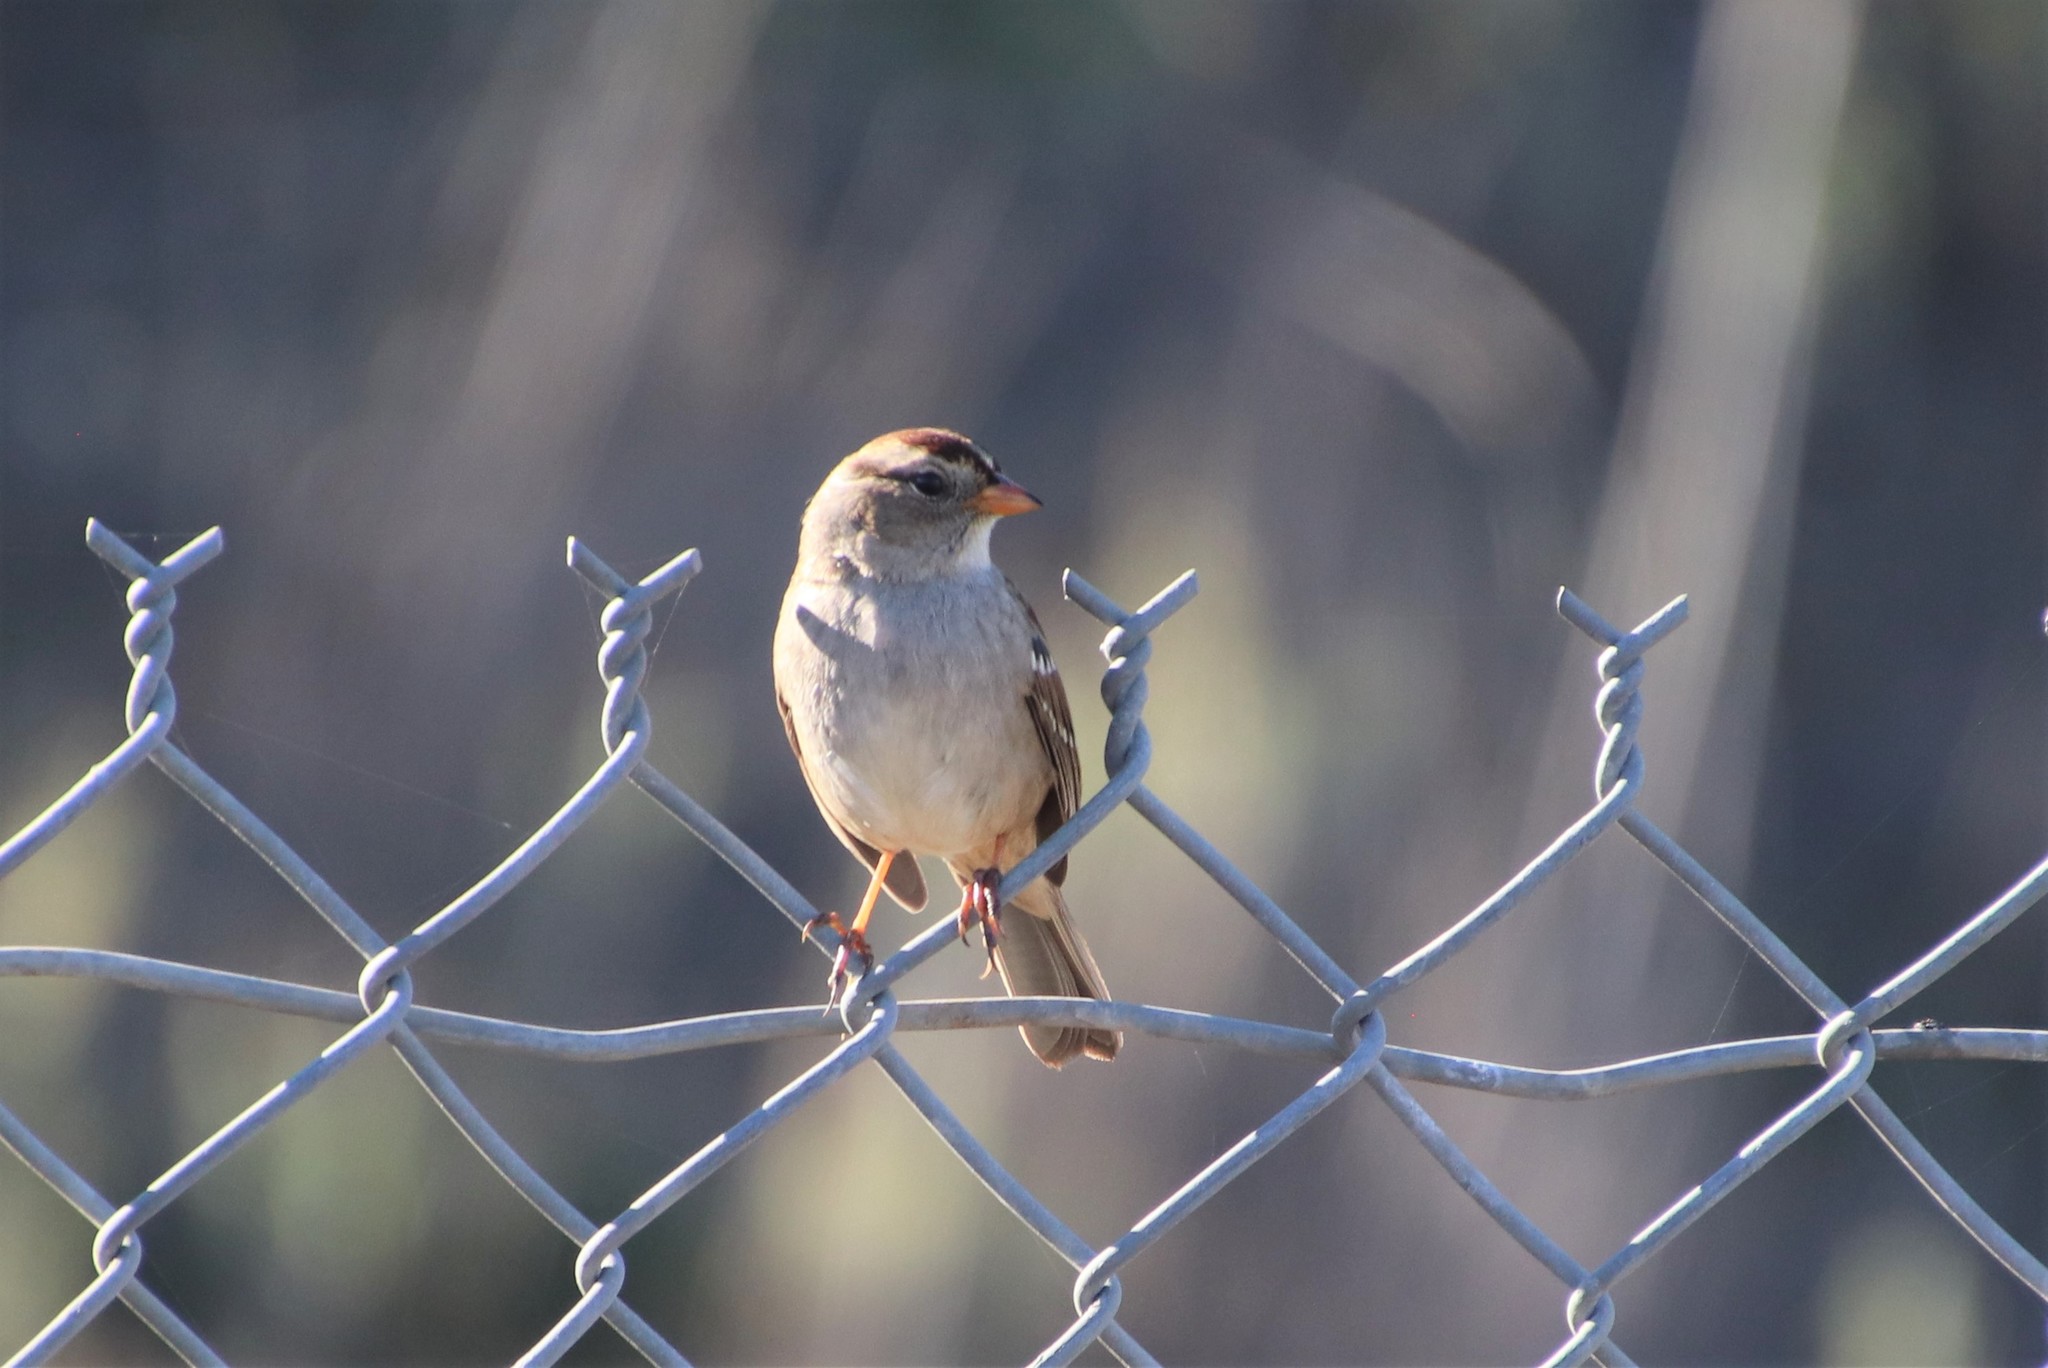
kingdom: Animalia
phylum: Chordata
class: Aves
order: Passeriformes
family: Passerellidae
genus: Zonotrichia
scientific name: Zonotrichia leucophrys
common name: White-crowned sparrow
